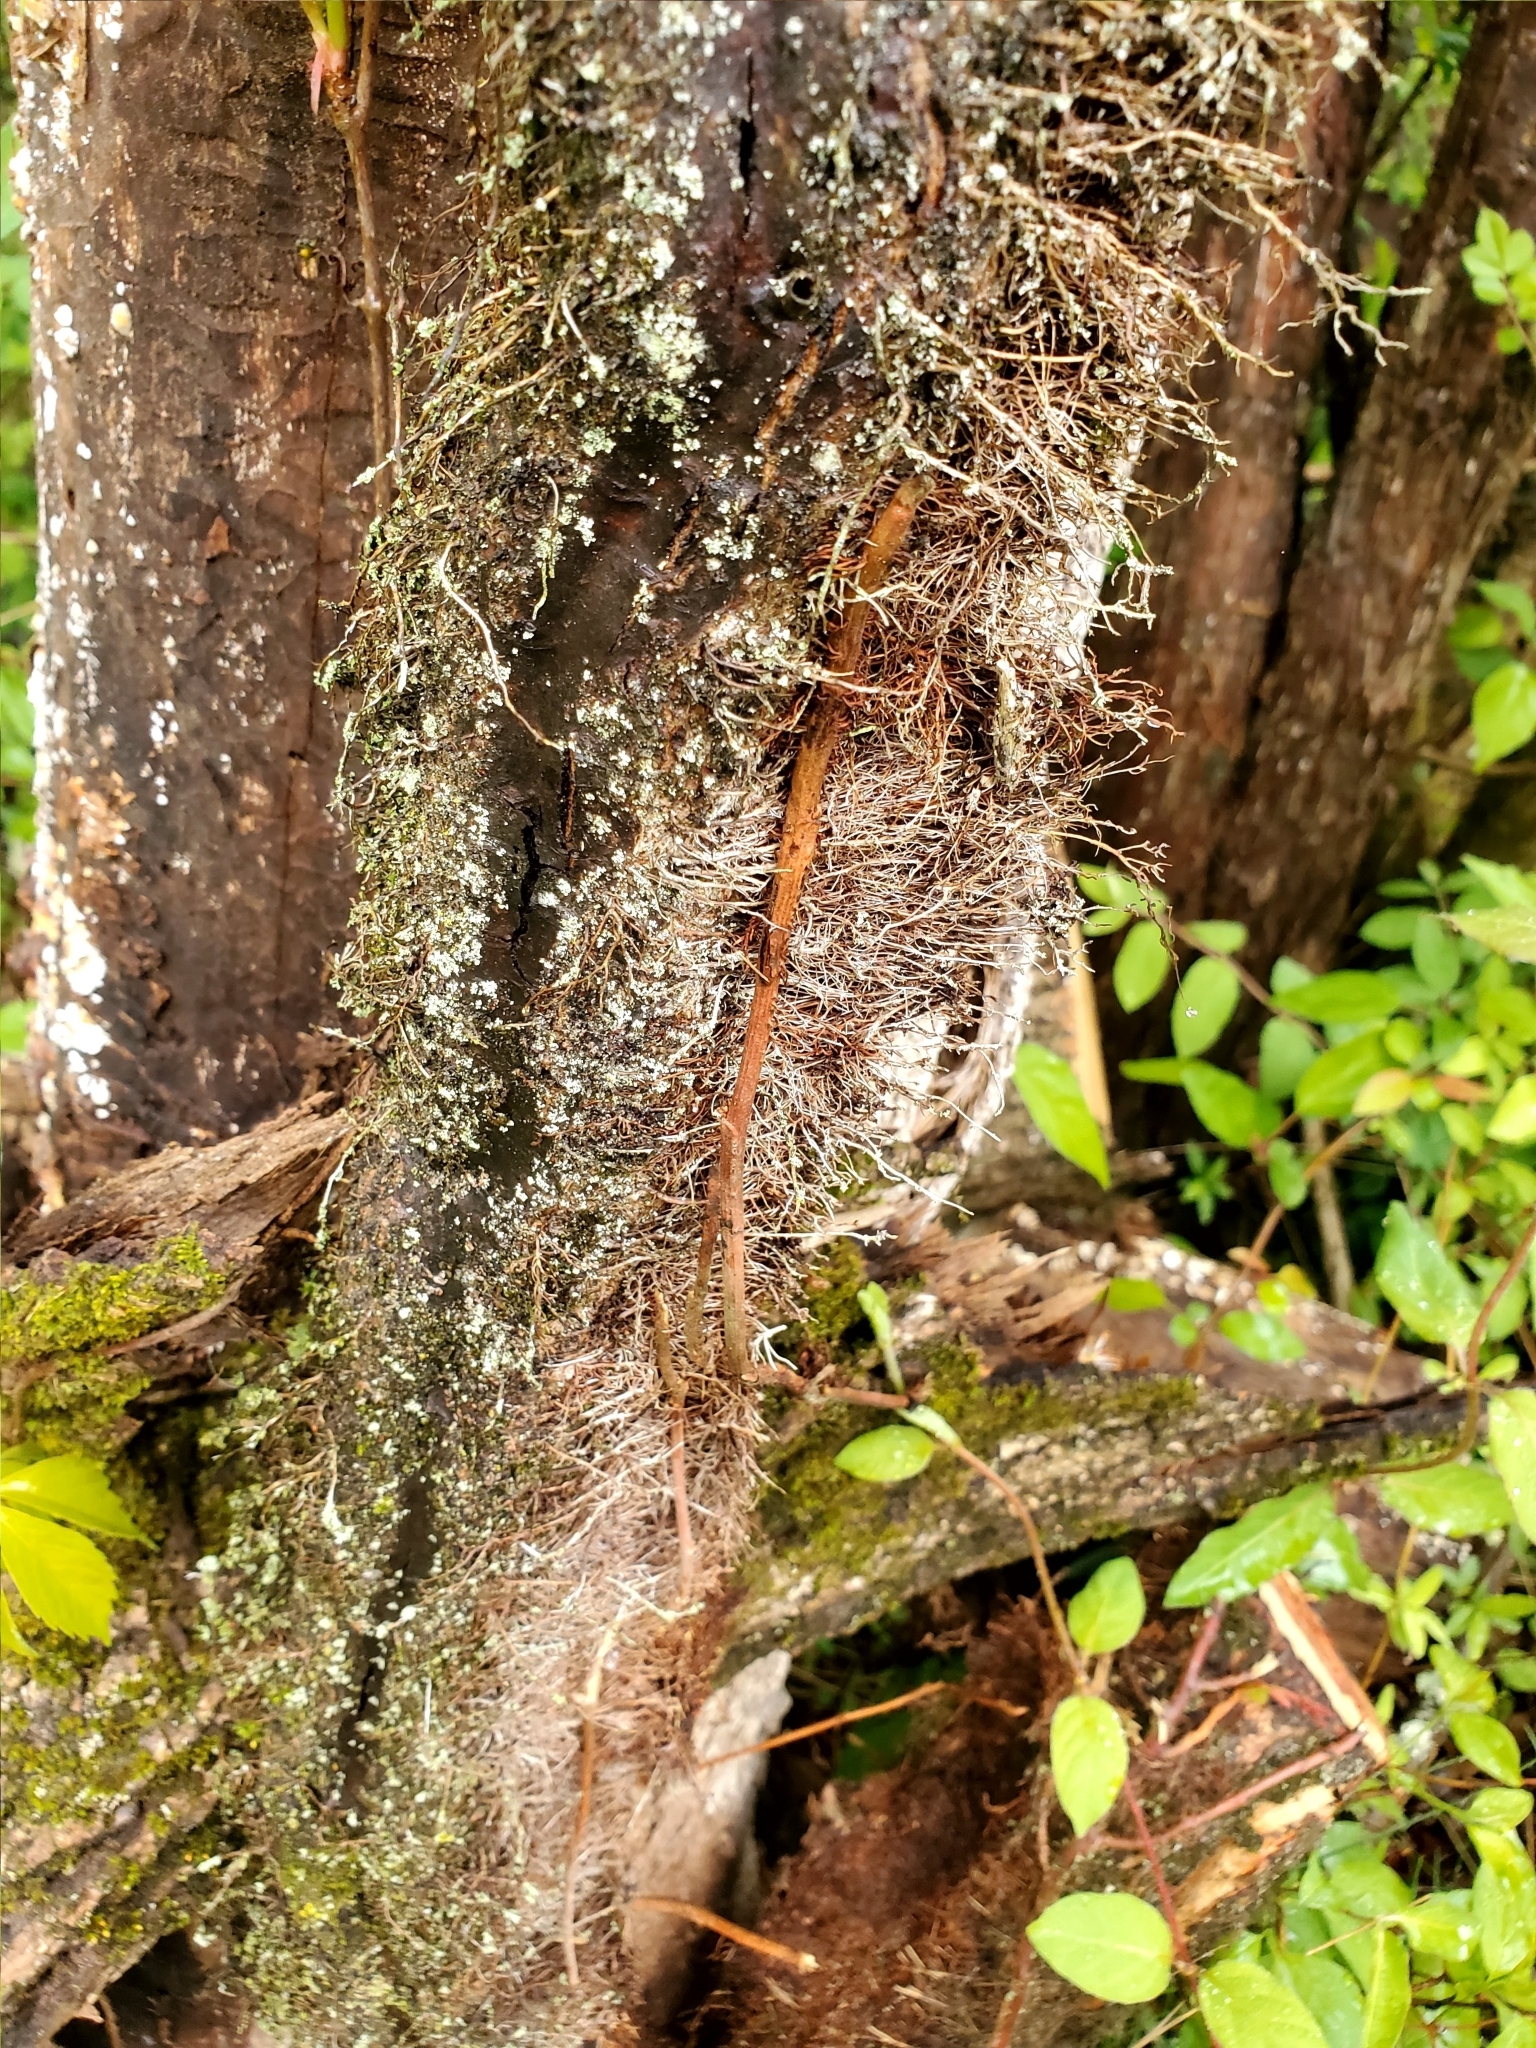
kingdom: Plantae
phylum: Tracheophyta
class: Magnoliopsida
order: Sapindales
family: Anacardiaceae
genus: Toxicodendron
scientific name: Toxicodendron radicans
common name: Poison ivy
